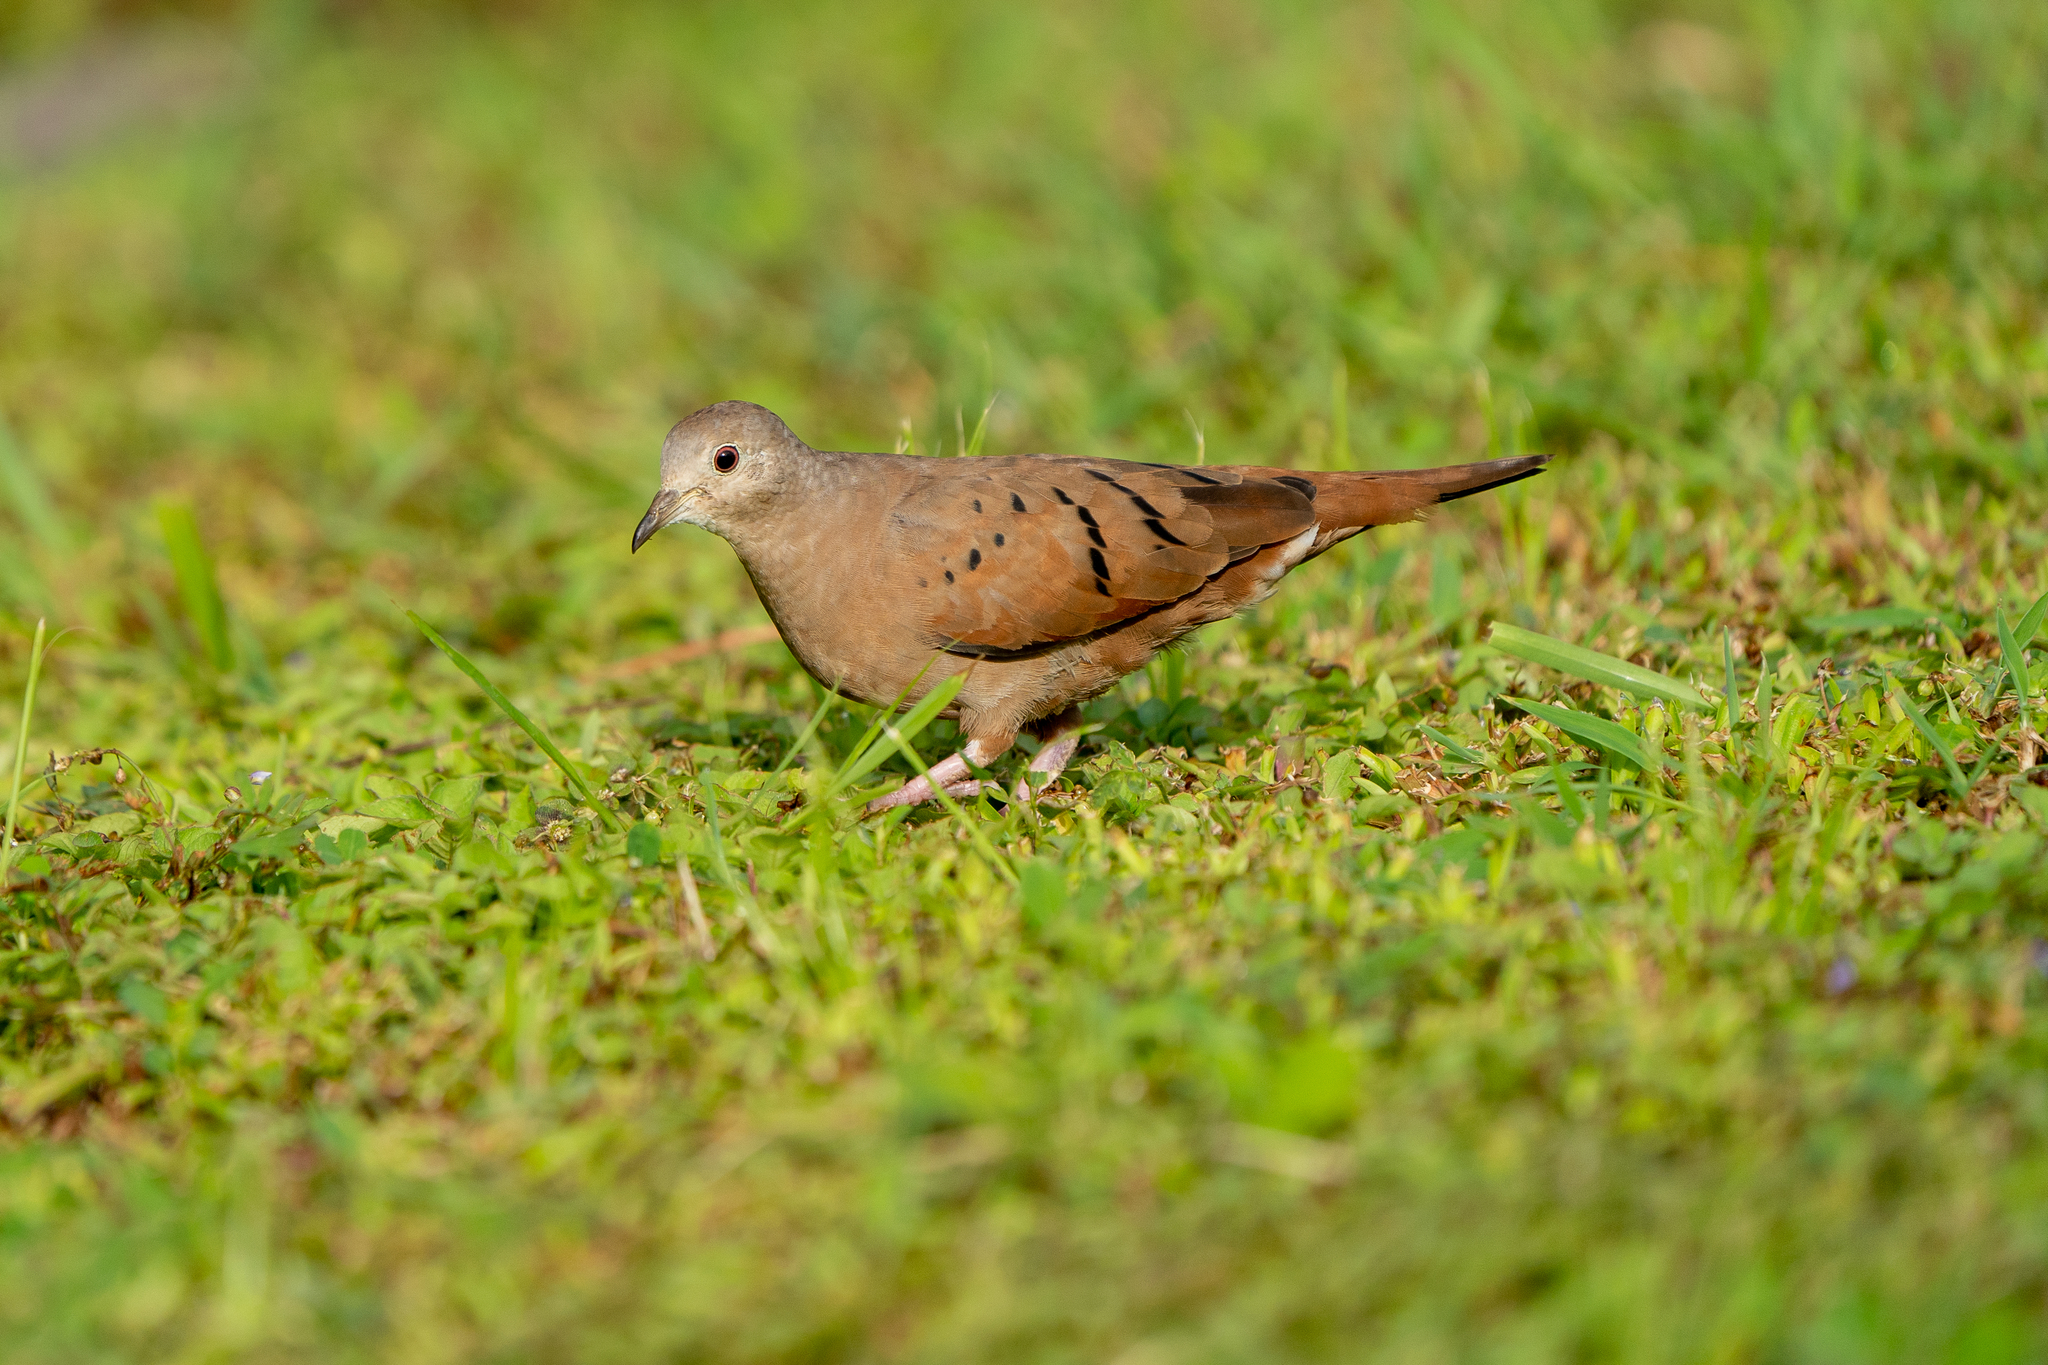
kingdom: Animalia
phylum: Chordata
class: Aves
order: Columbiformes
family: Columbidae
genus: Columbina
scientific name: Columbina talpacoti
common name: Ruddy ground dove
